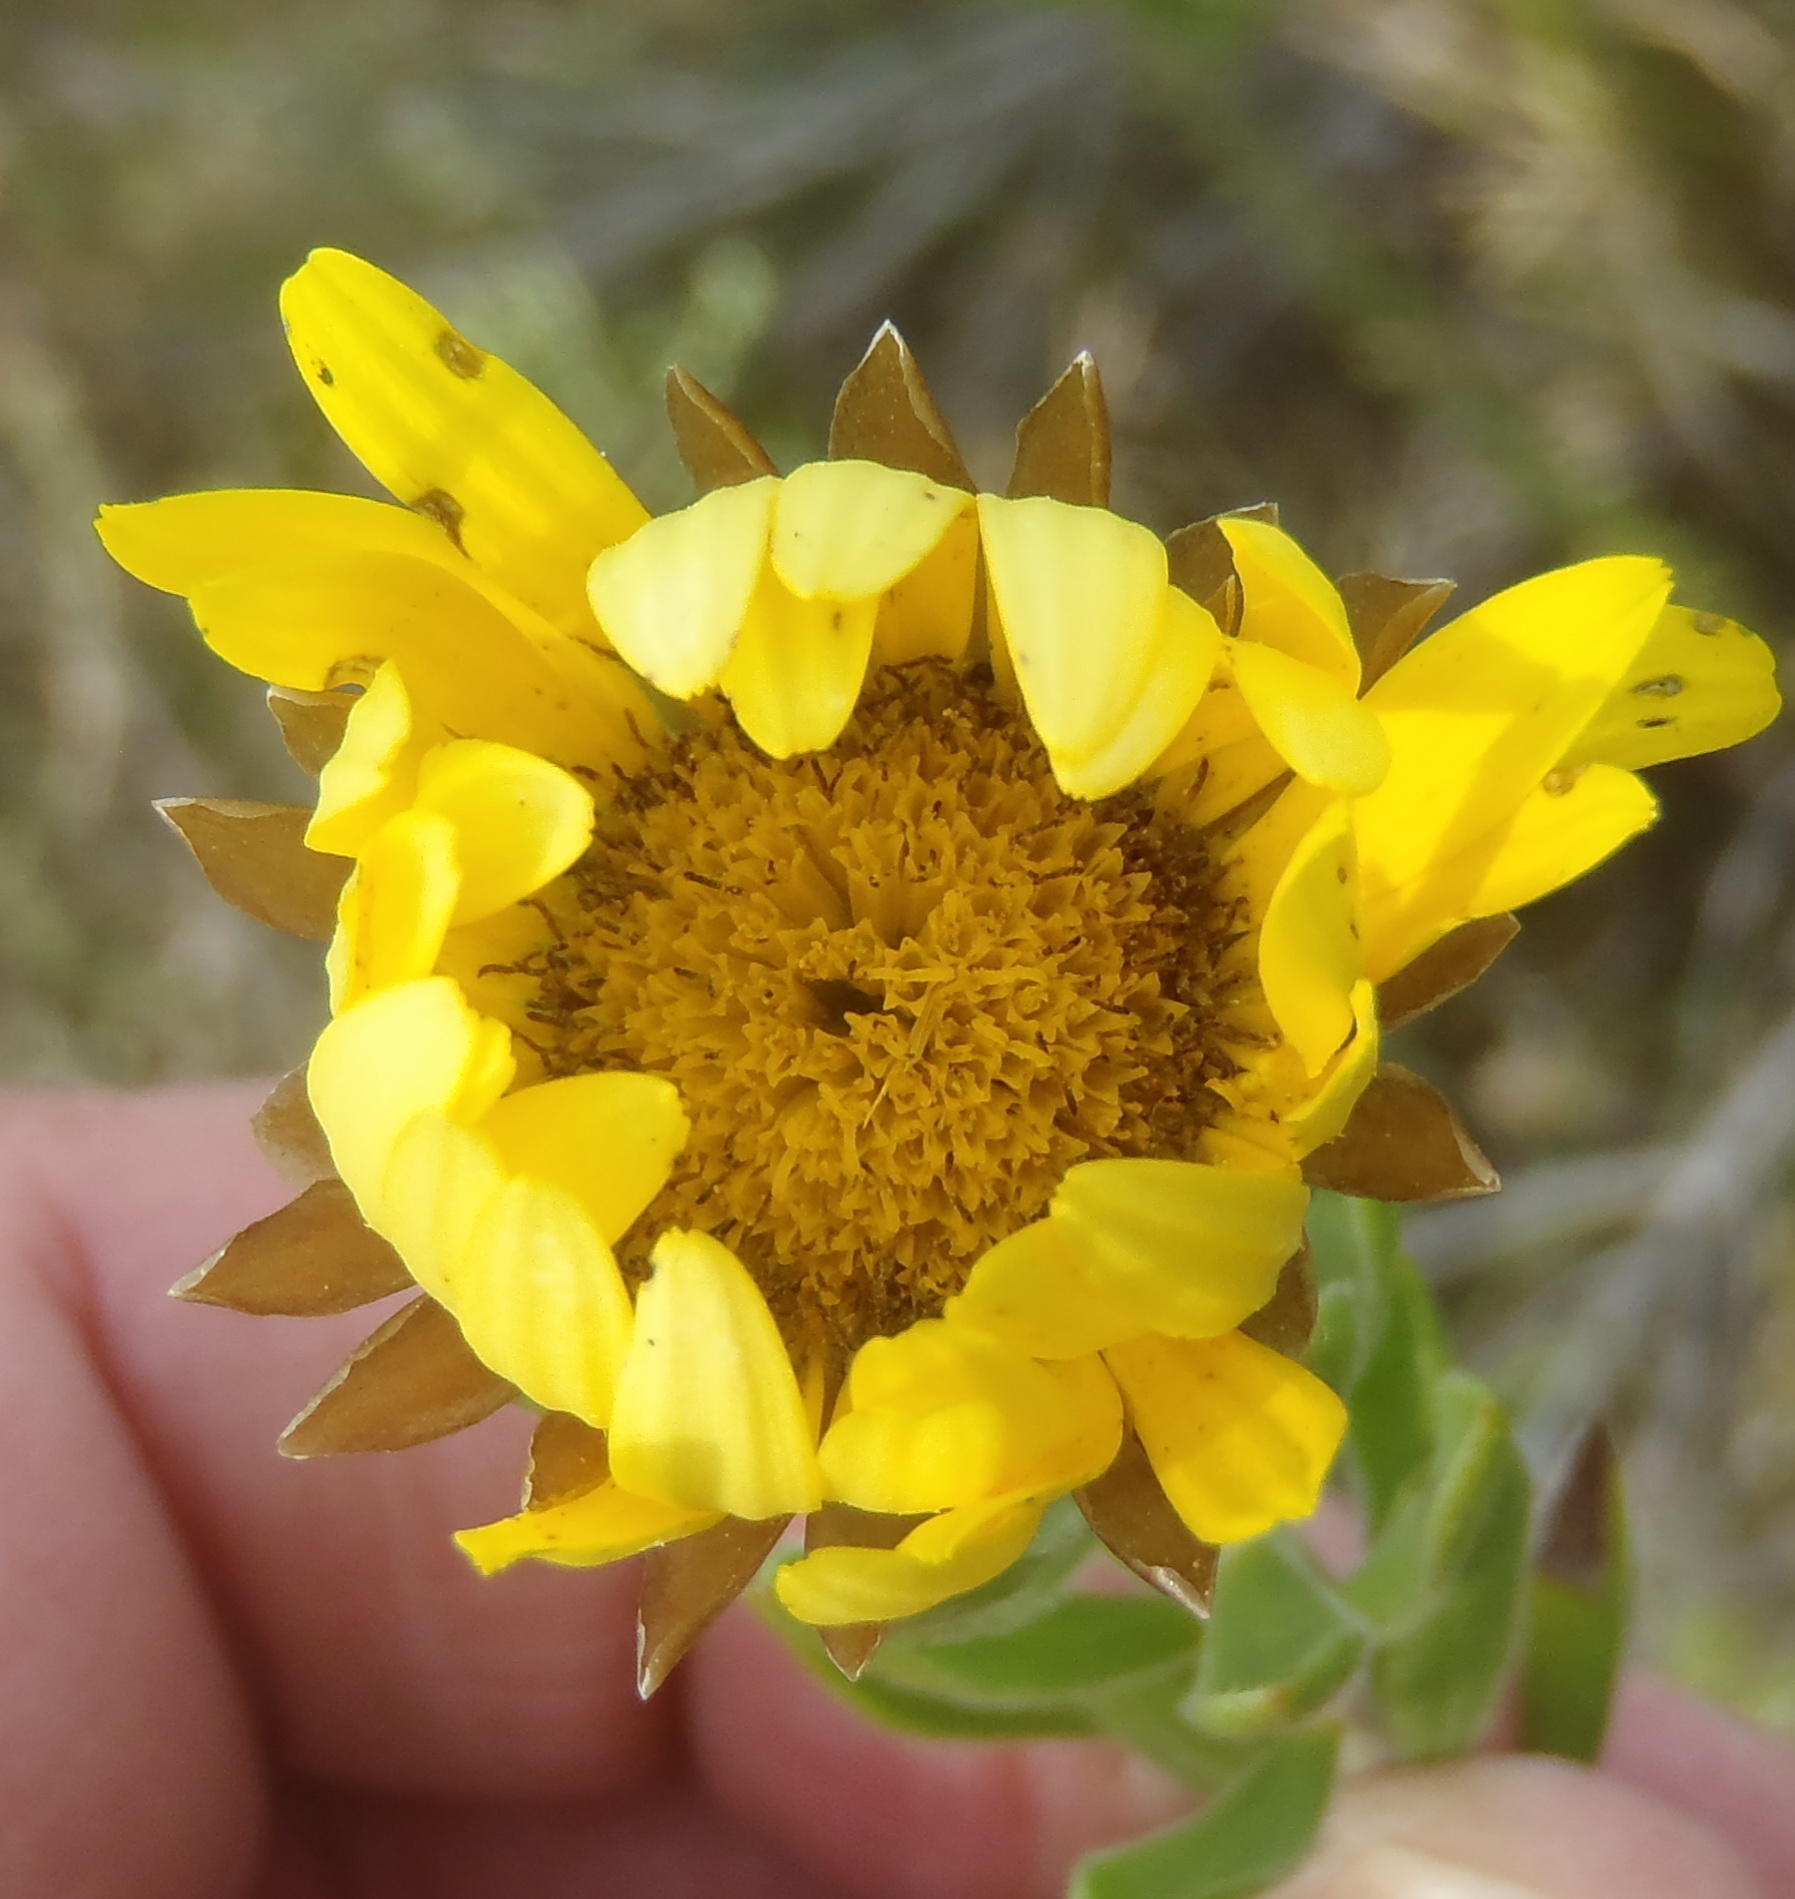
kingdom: Plantae
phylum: Tracheophyta
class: Magnoliopsida
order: Asterales
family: Asteraceae
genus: Oedera
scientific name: Oedera calycina
